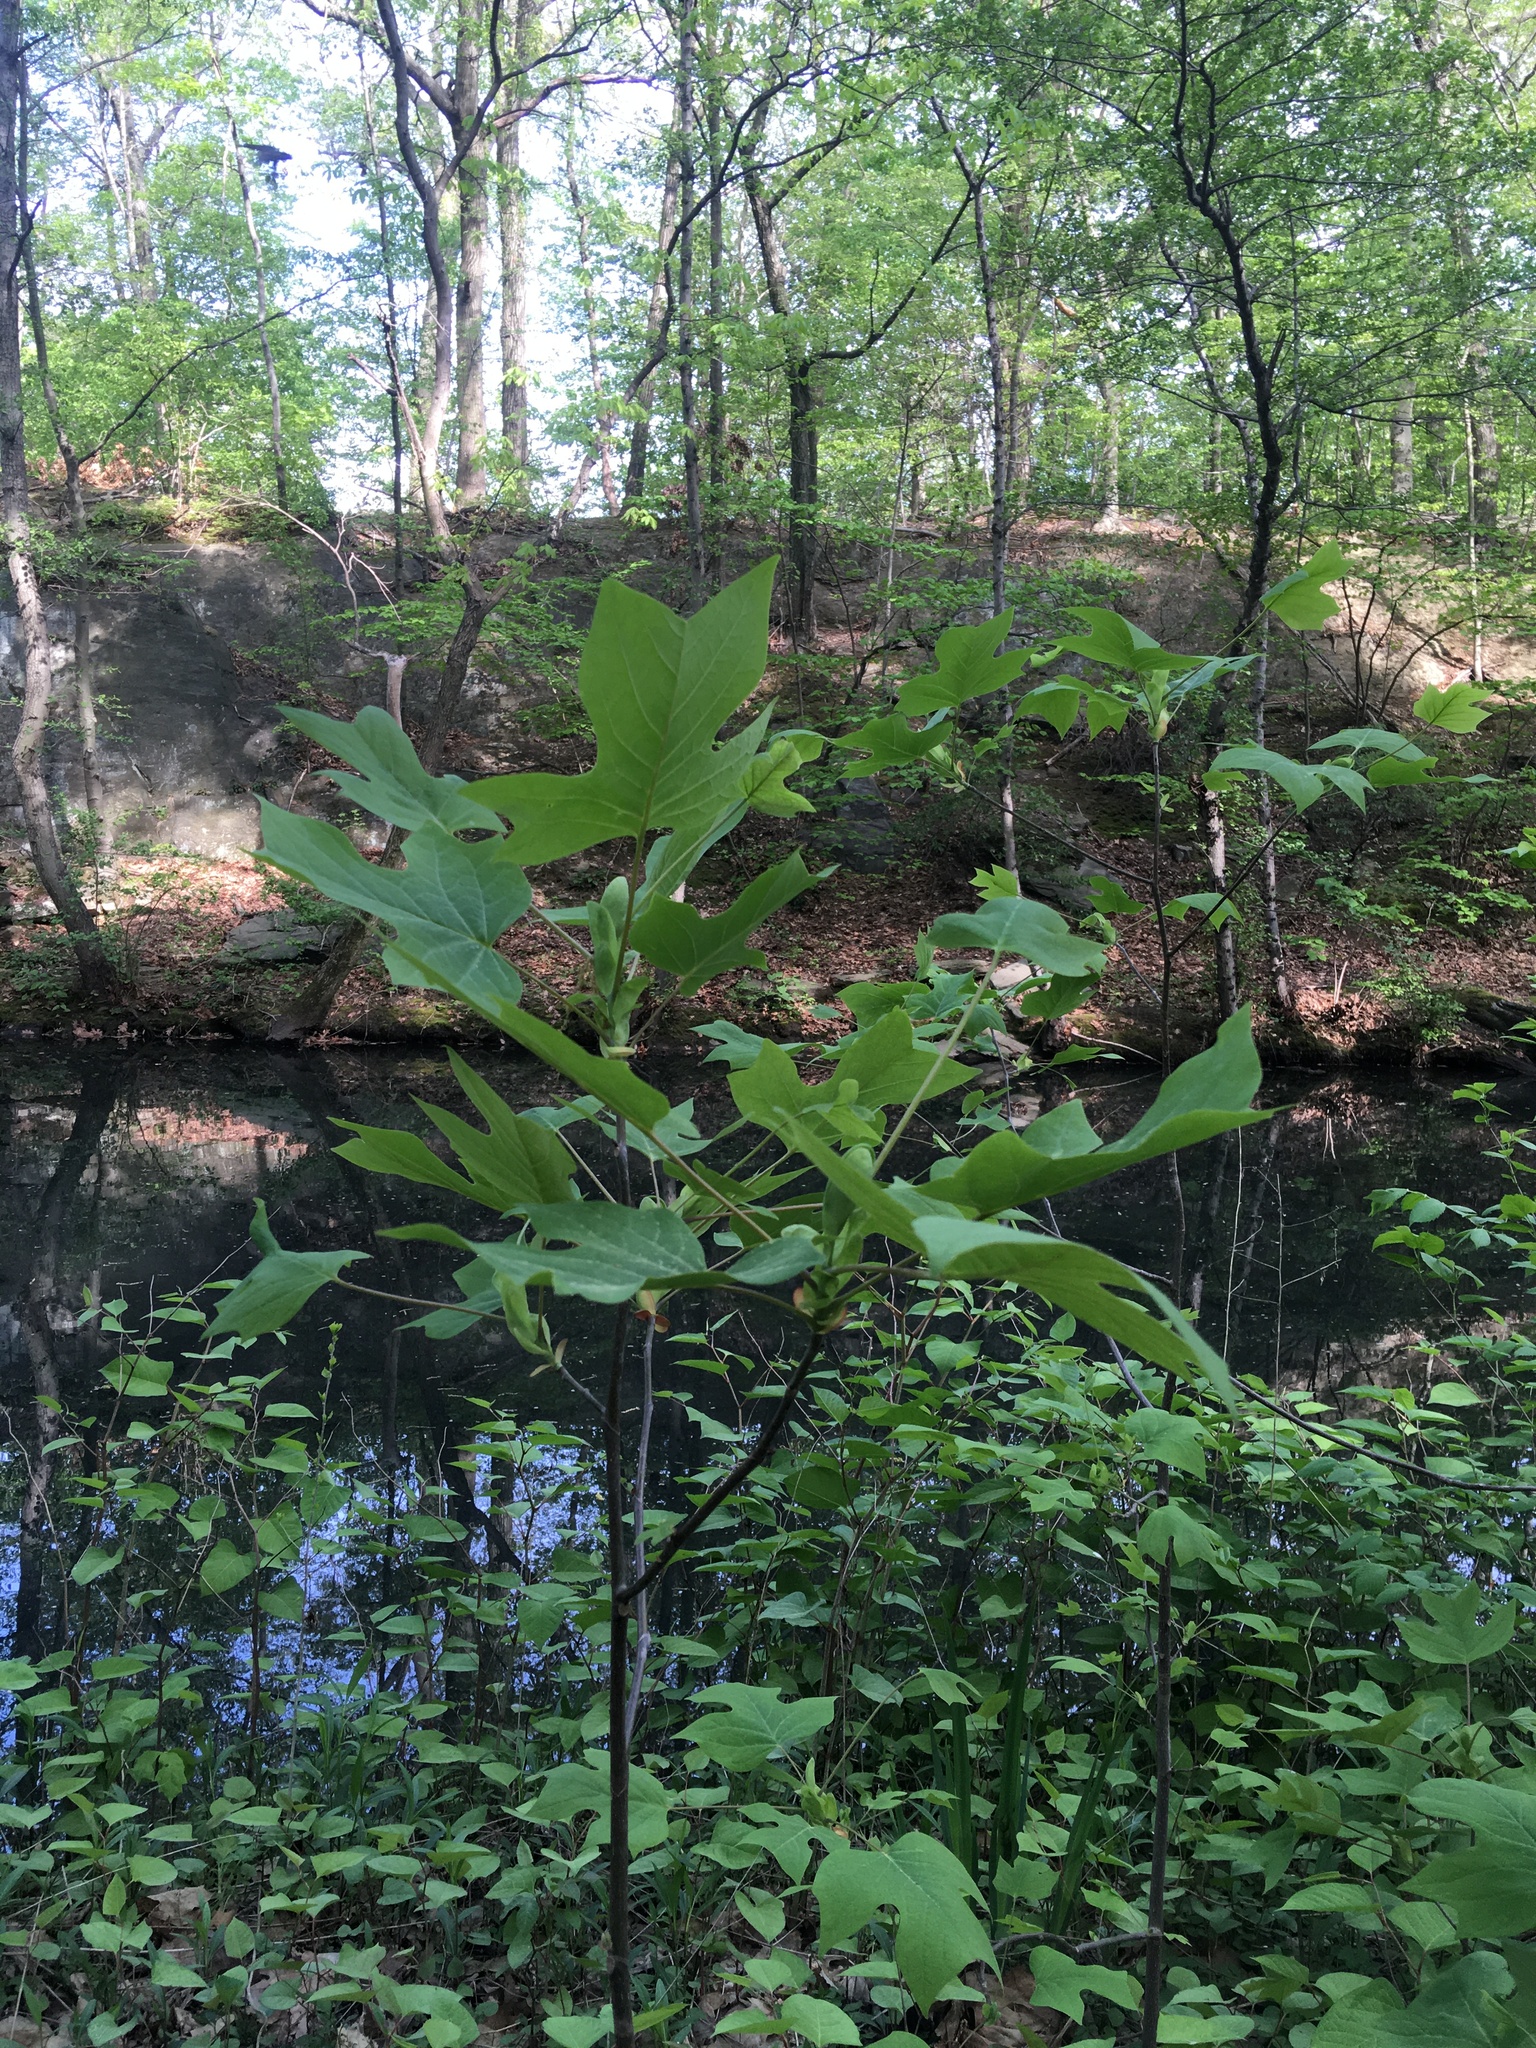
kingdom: Plantae
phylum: Tracheophyta
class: Magnoliopsida
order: Magnoliales
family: Magnoliaceae
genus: Liriodendron
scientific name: Liriodendron tulipifera
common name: Tulip tree
